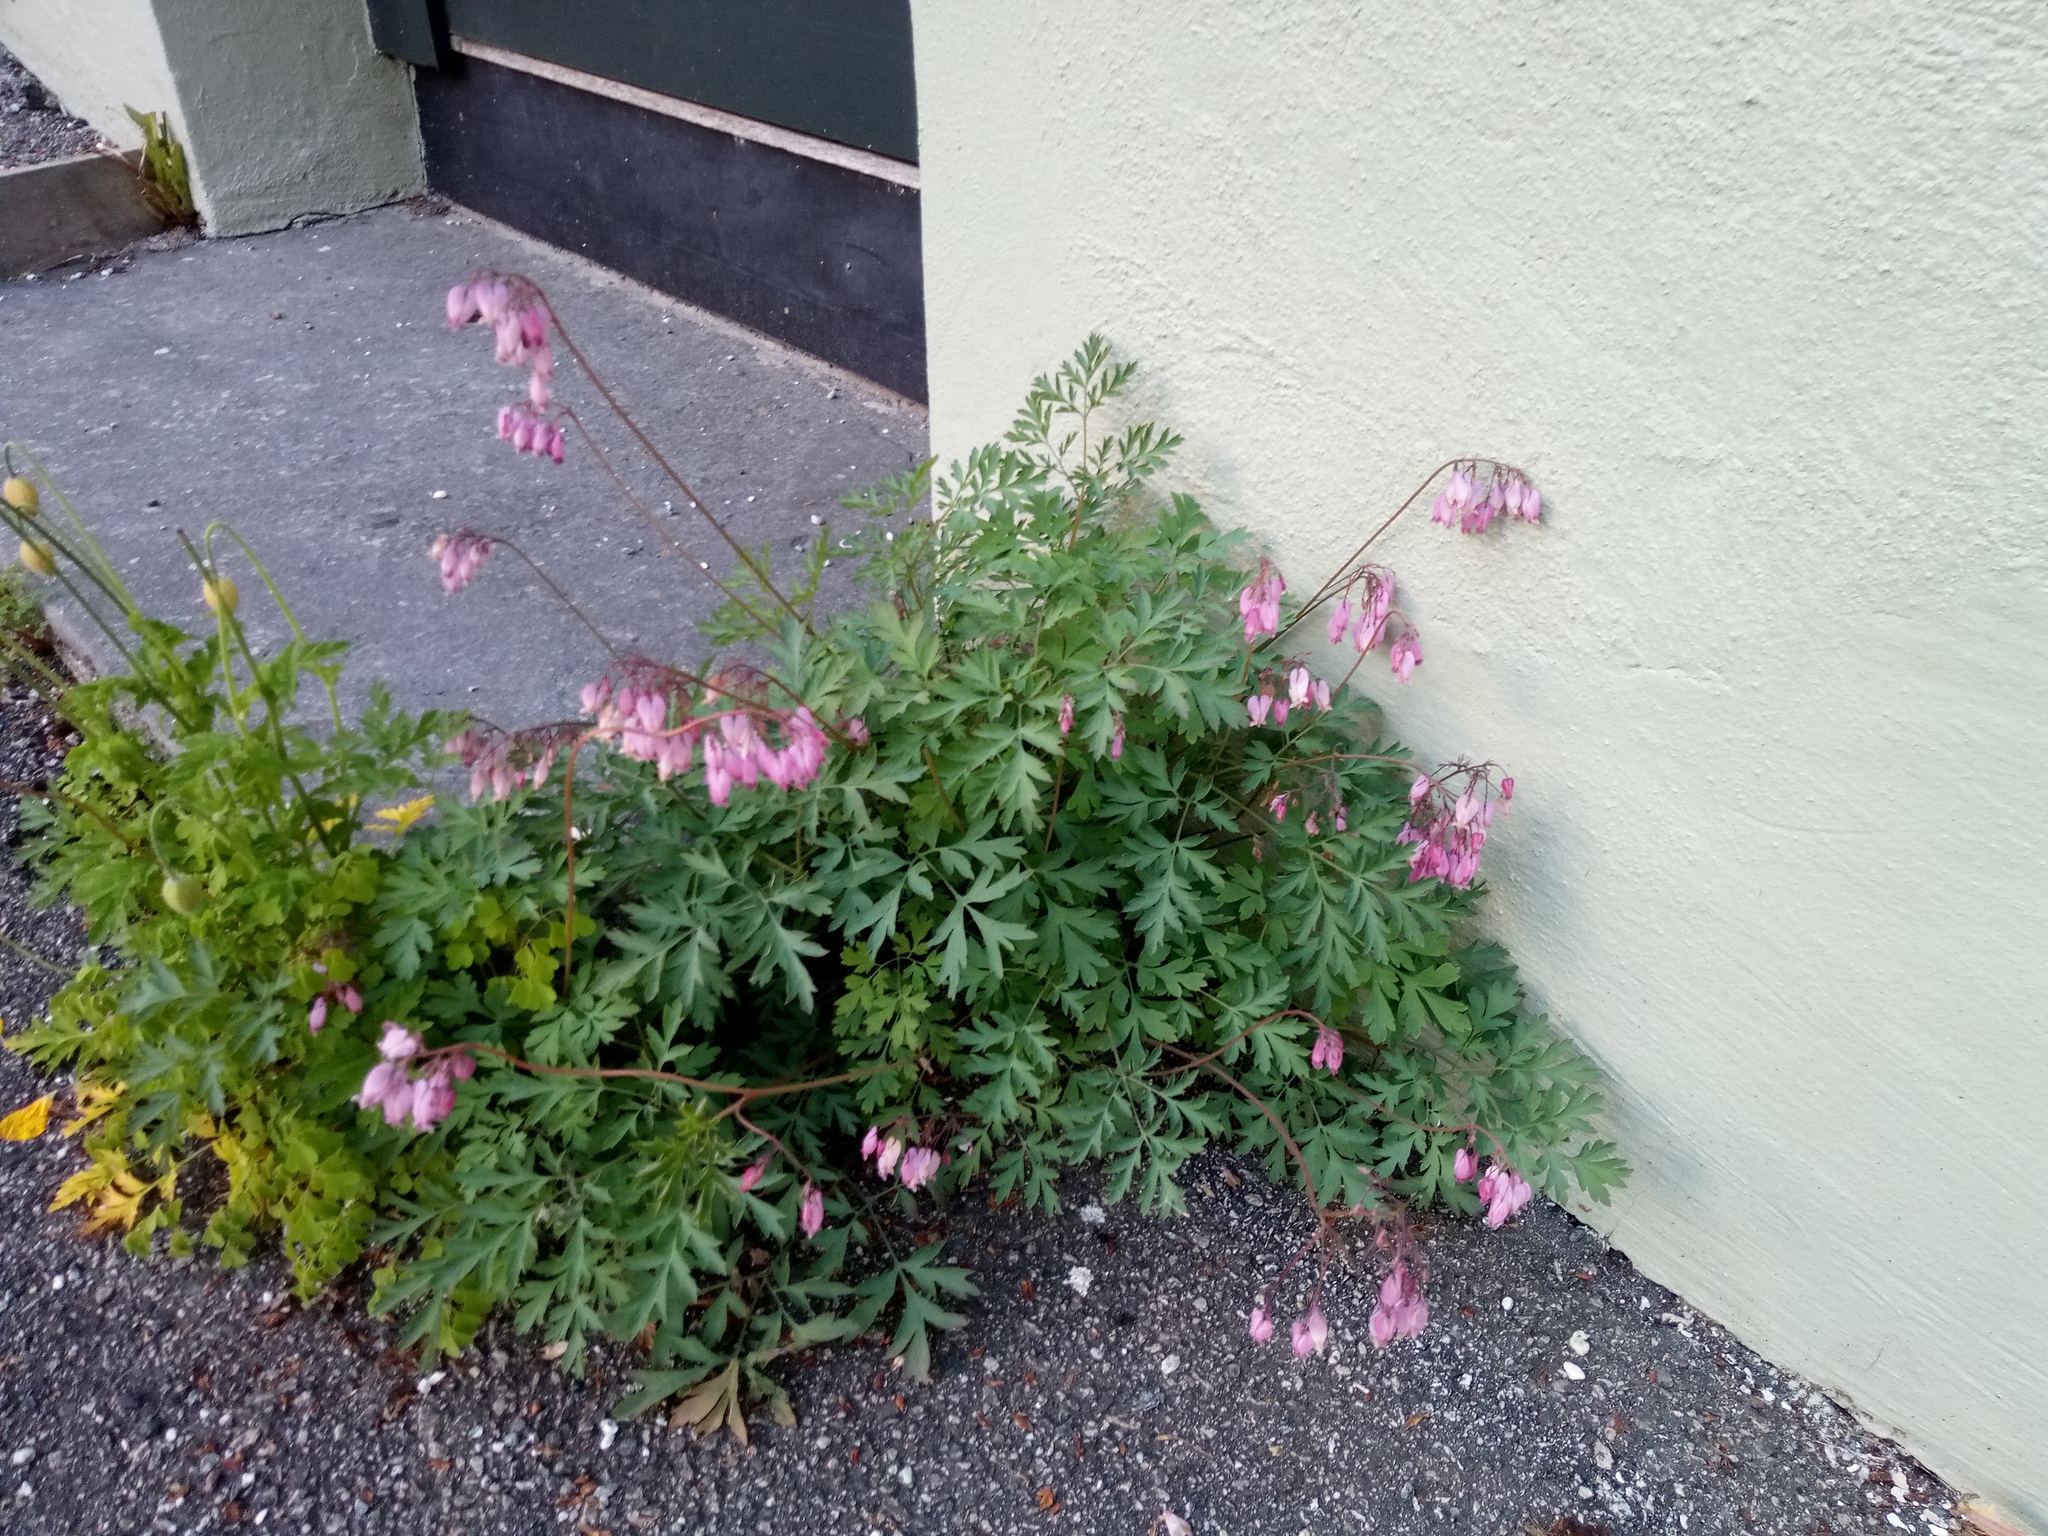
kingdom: Plantae
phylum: Tracheophyta
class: Magnoliopsida
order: Ranunculales
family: Papaveraceae
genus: Lamprocapnos
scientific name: Lamprocapnos spectabilis
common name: Asian bleeding-heart
